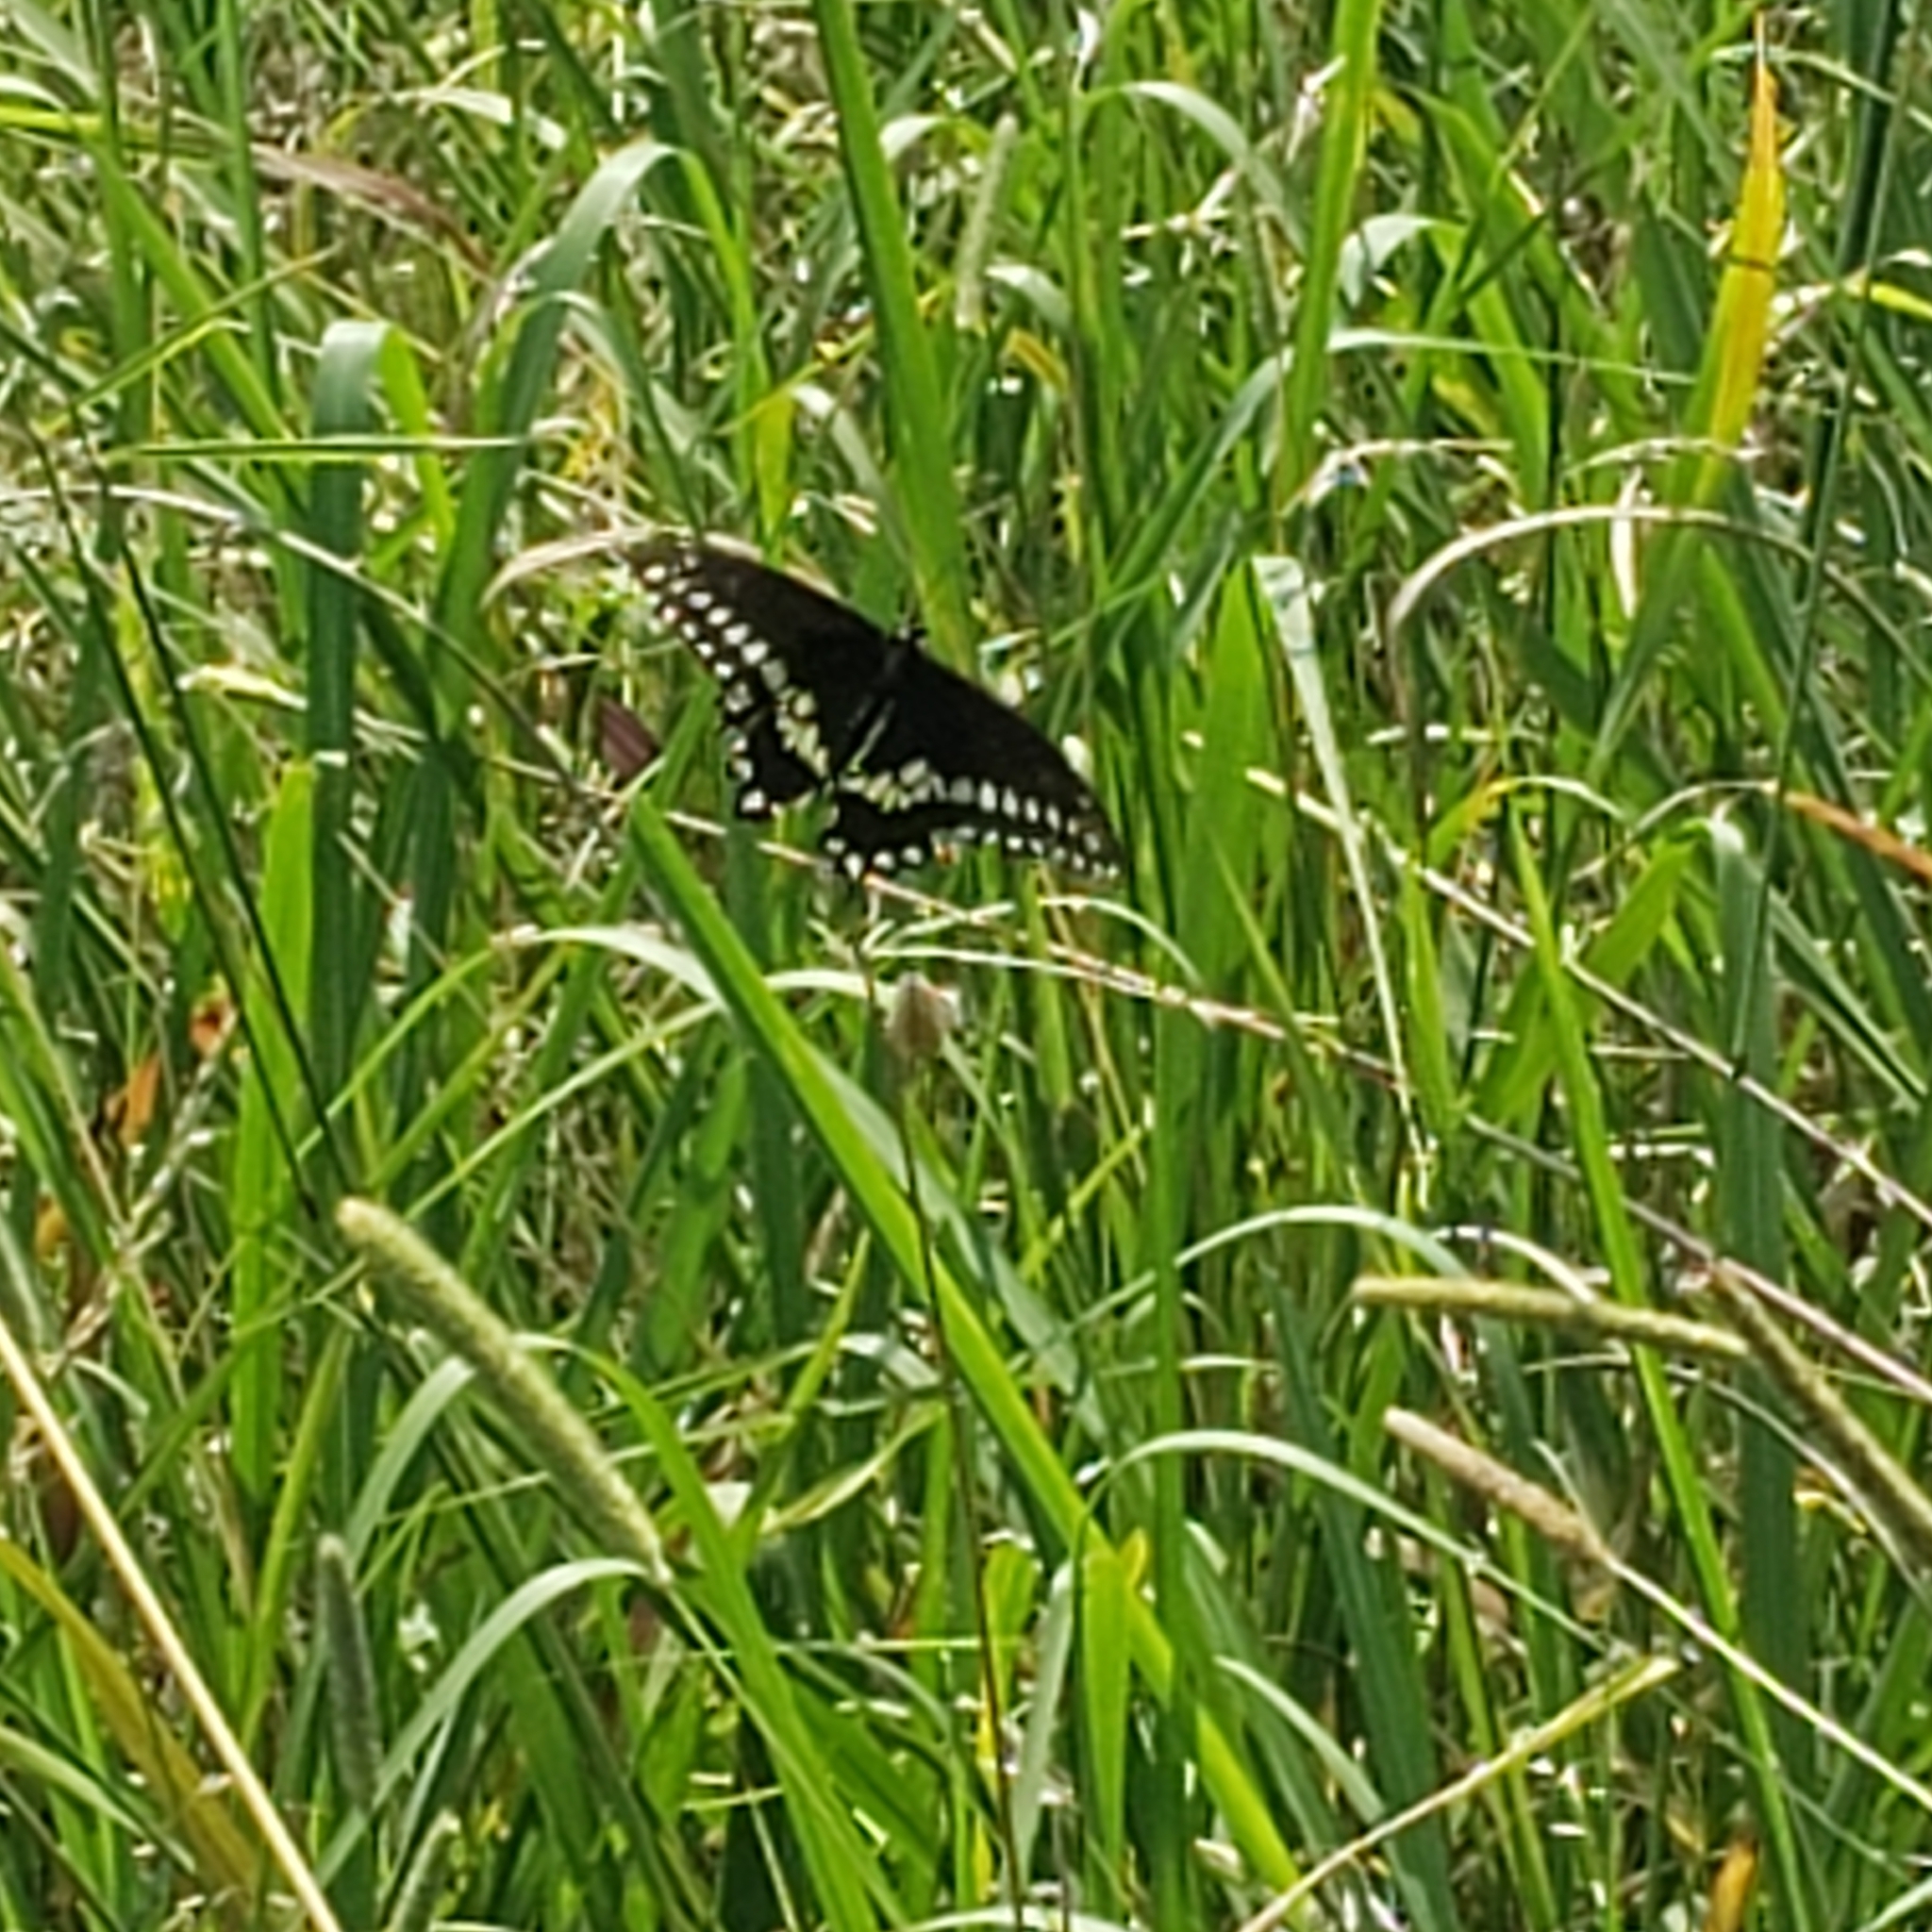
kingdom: Animalia
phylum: Arthropoda
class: Insecta
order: Lepidoptera
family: Papilionidae
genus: Papilio
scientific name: Papilio polyxenes
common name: Black swallowtail
